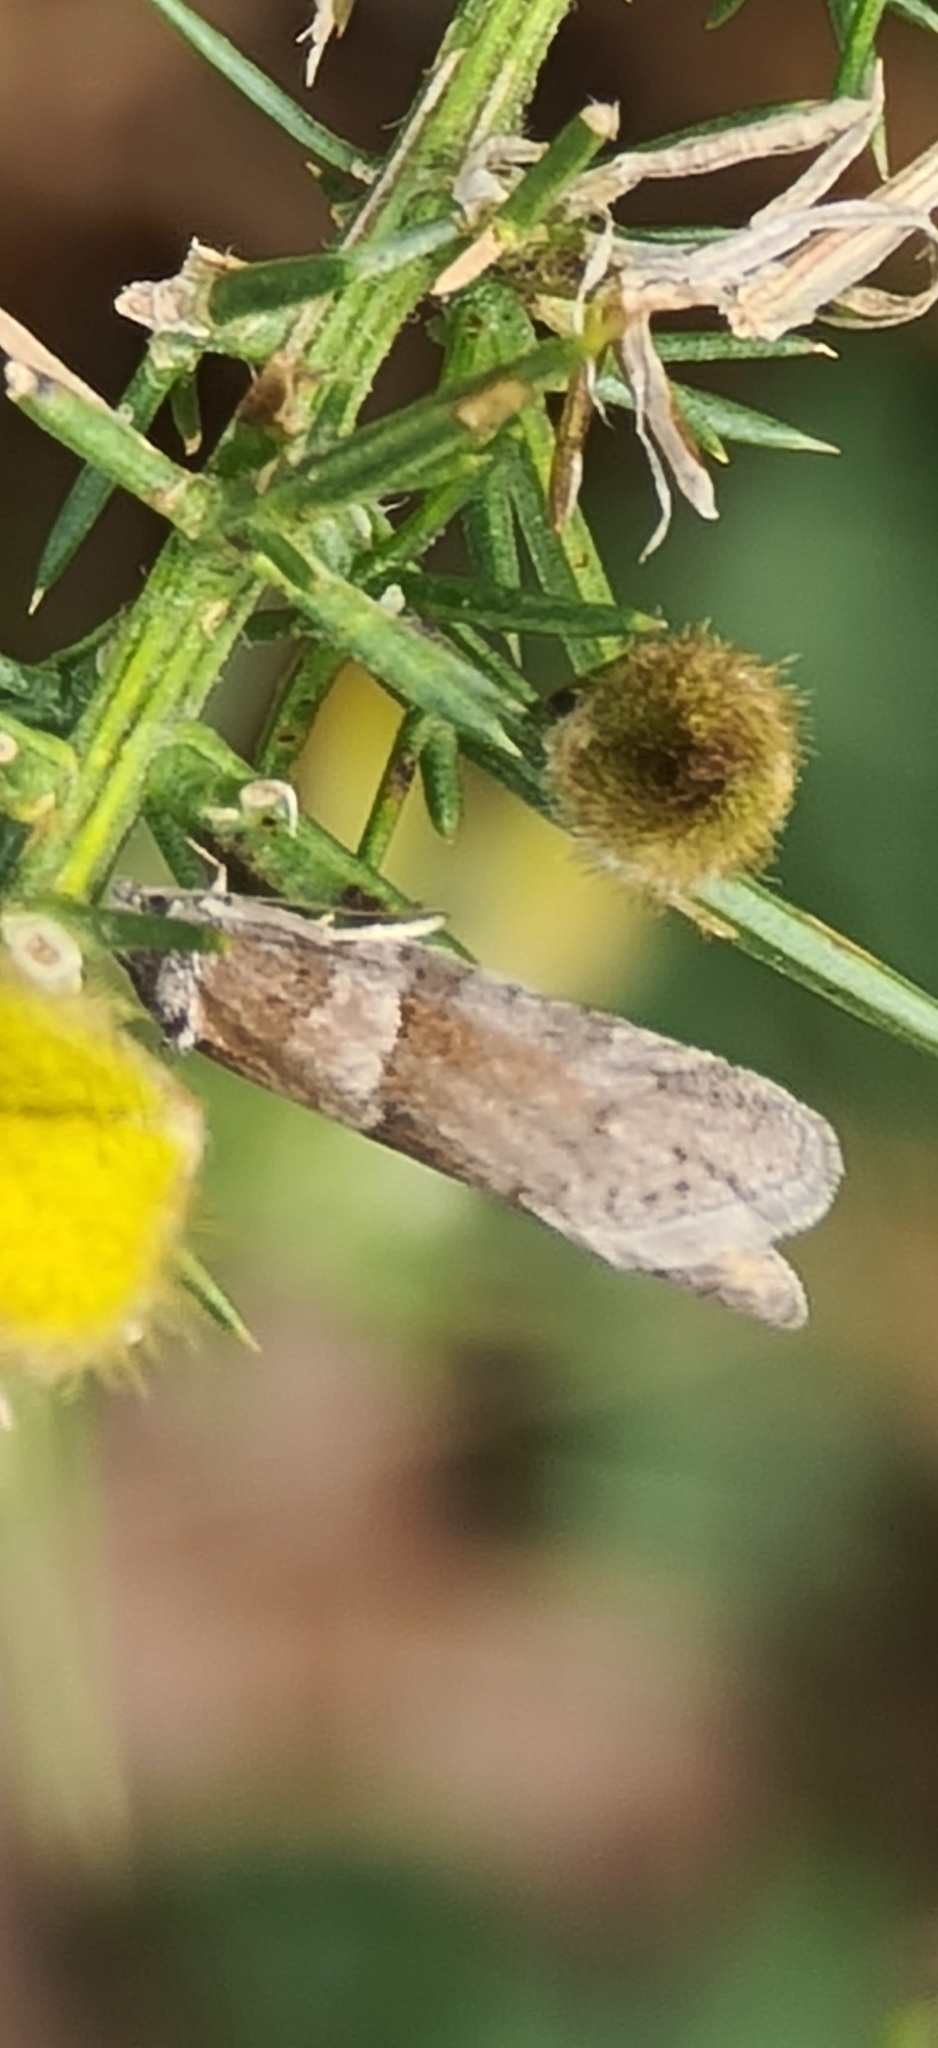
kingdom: Animalia
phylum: Arthropoda
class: Insecta
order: Lepidoptera
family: Tortricidae
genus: Tortricodes
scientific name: Tortricodes alternella
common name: Winter shade
